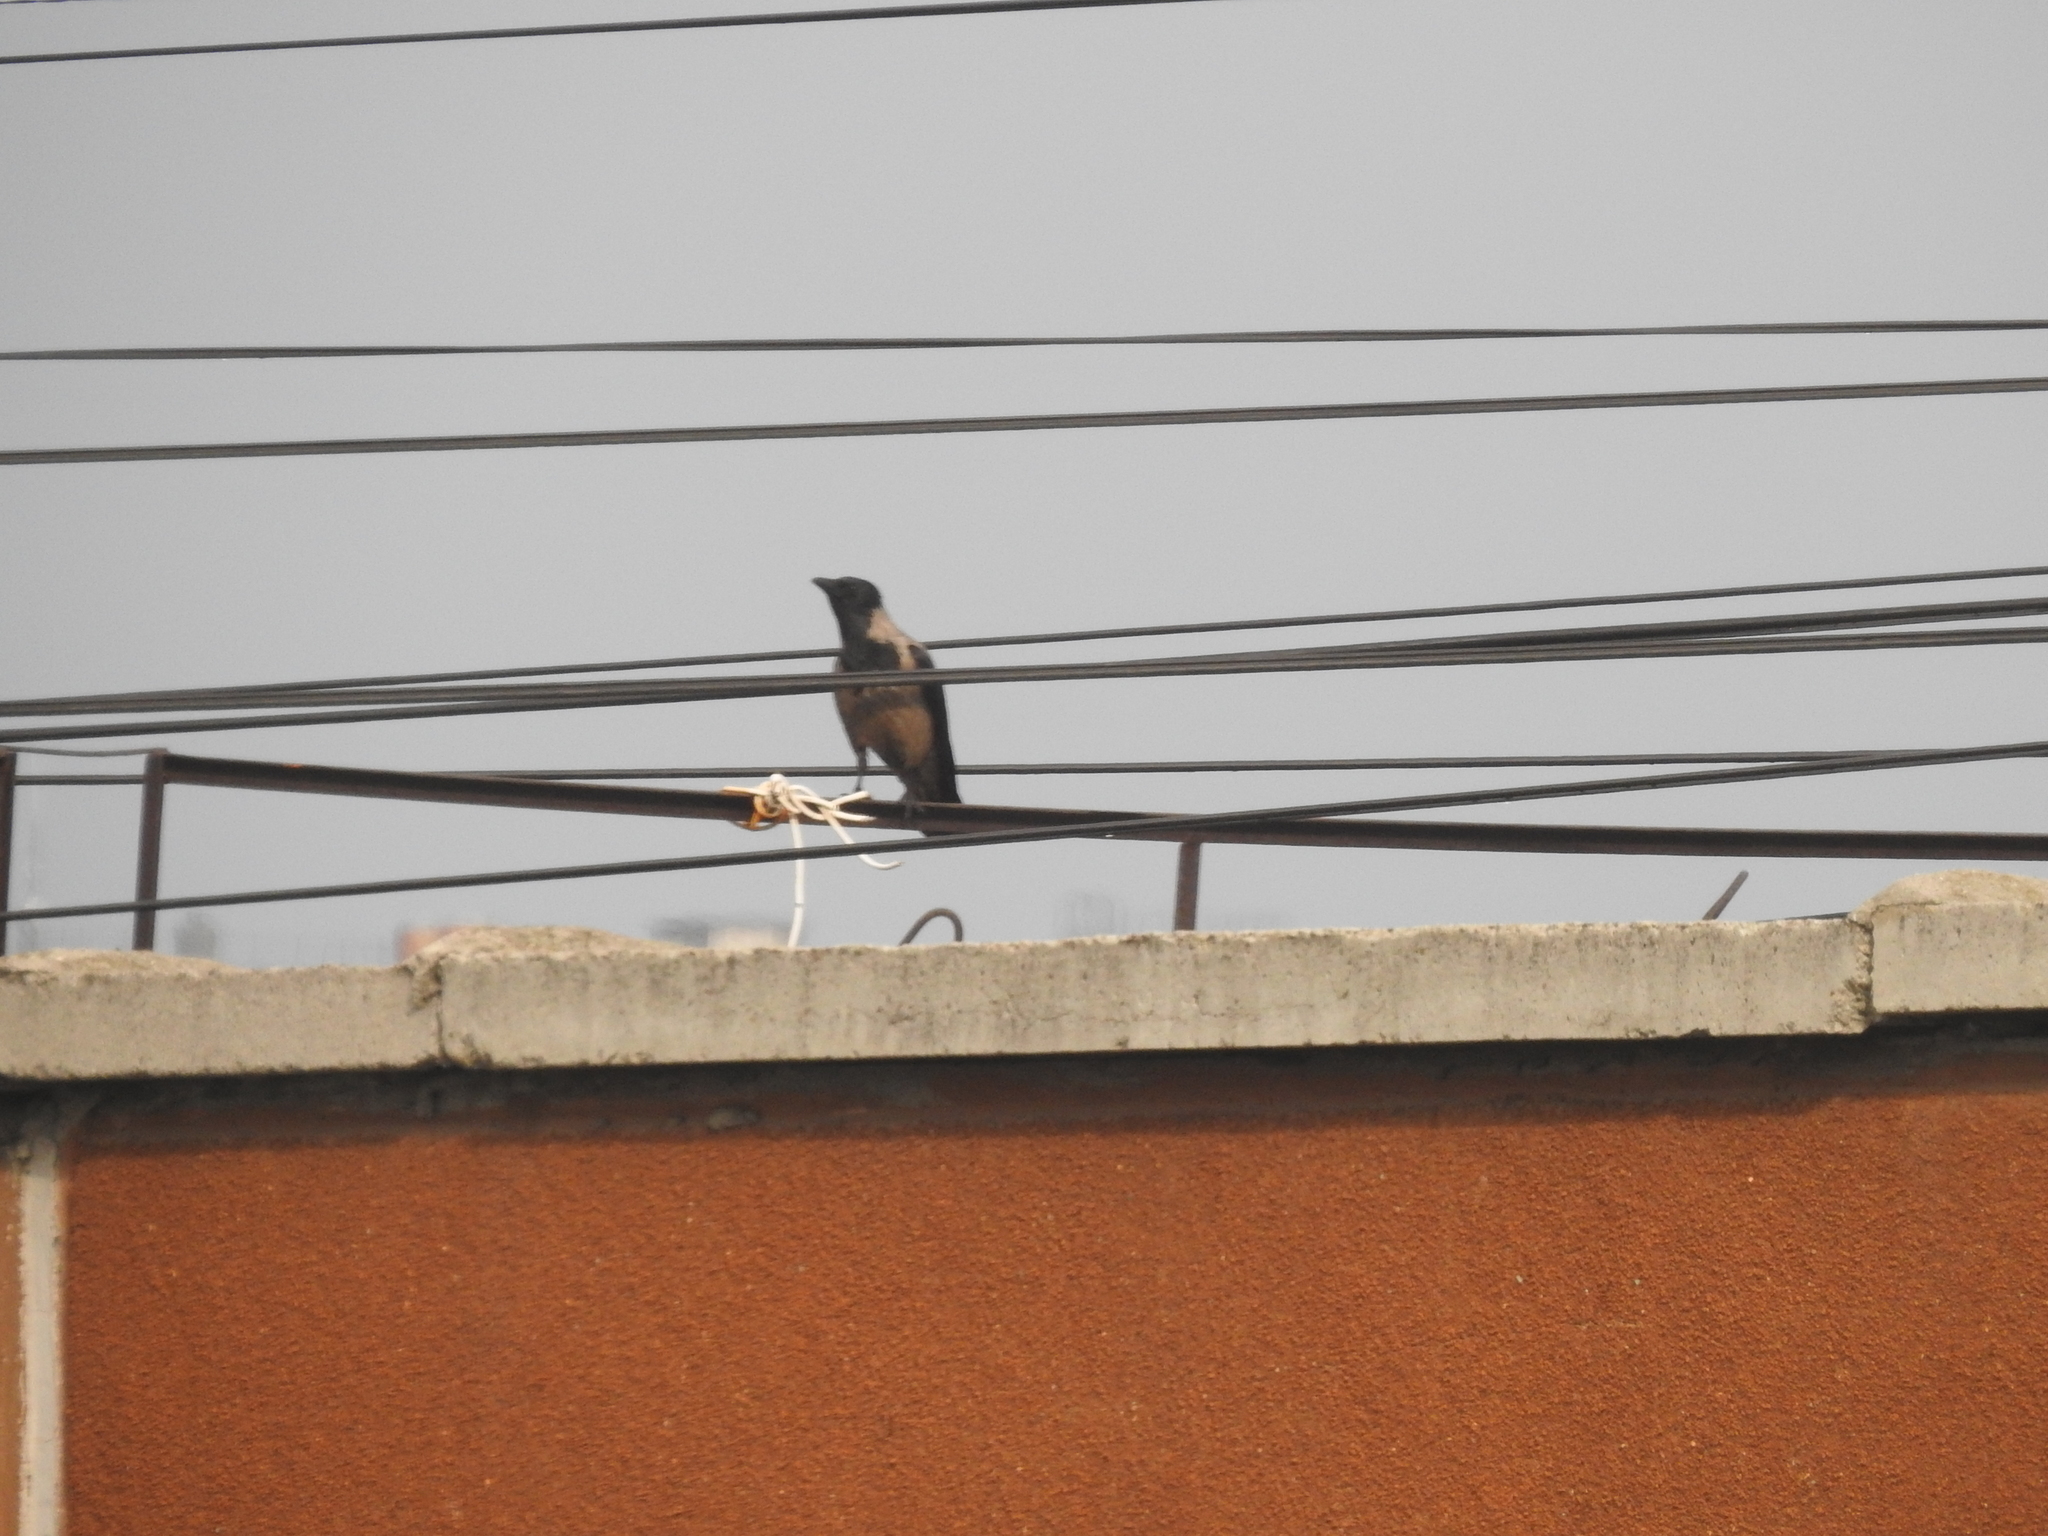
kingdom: Animalia
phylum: Chordata
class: Aves
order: Passeriformes
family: Corvidae
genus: Corvus
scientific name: Corvus cornix
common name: Hooded crow
